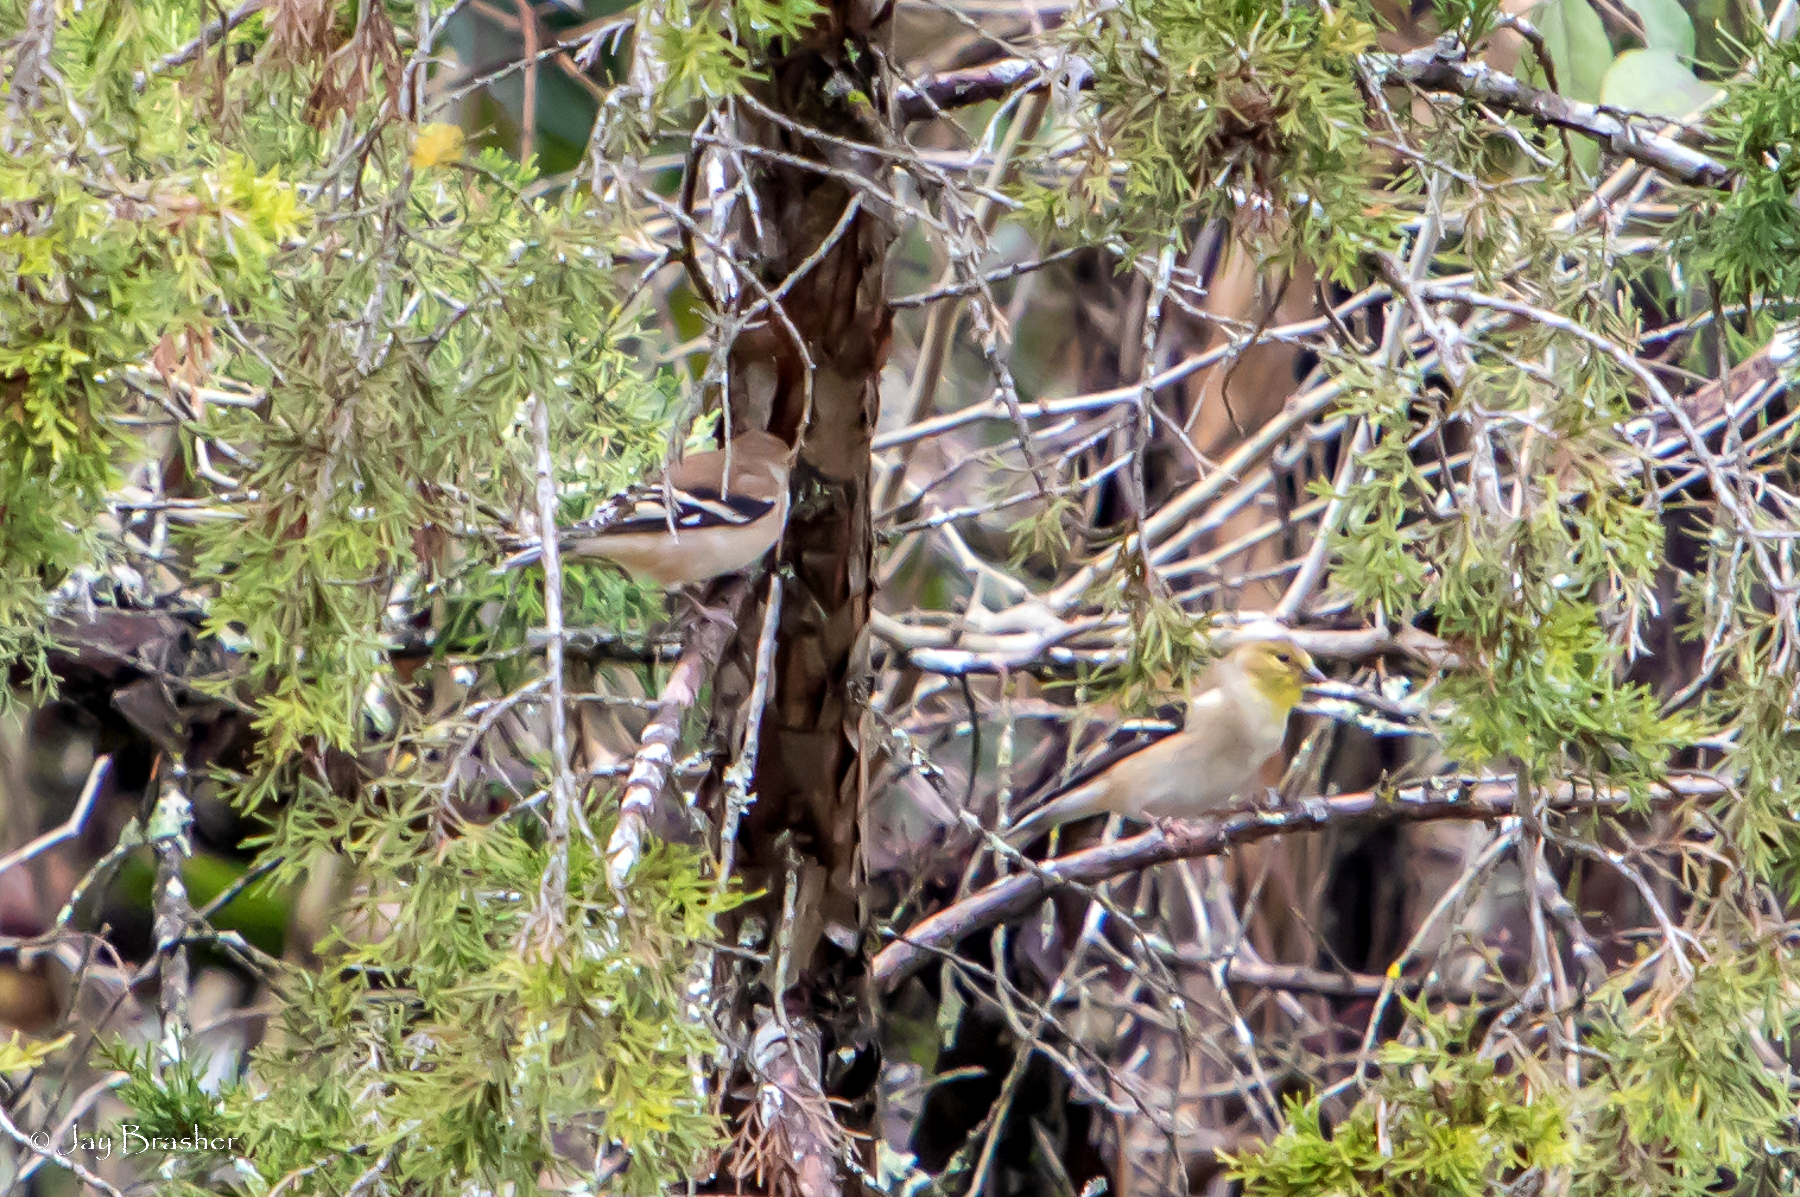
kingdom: Animalia
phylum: Chordata
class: Aves
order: Passeriformes
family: Fringillidae
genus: Spinus
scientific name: Spinus tristis
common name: American goldfinch
